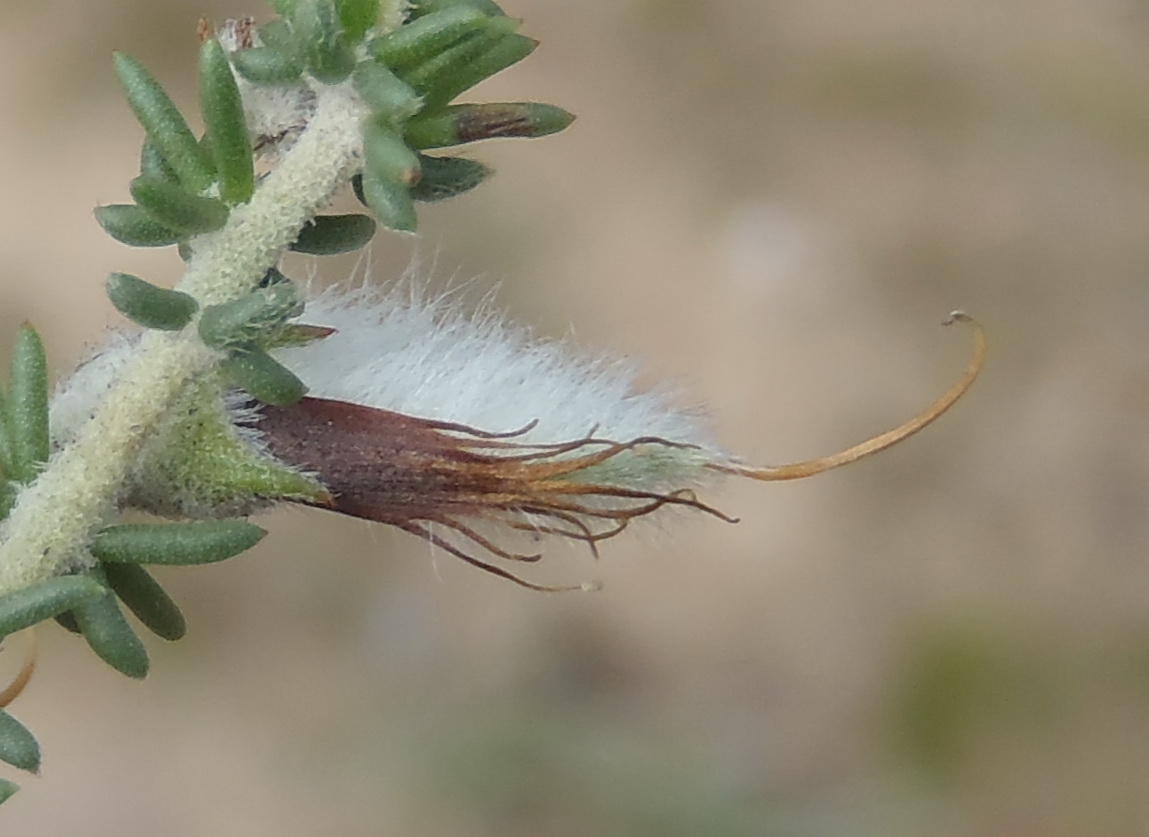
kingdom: Plantae
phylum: Tracheophyta
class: Magnoliopsida
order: Fabales
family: Fabaceae
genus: Aspalathus
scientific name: Aspalathus chortophila
